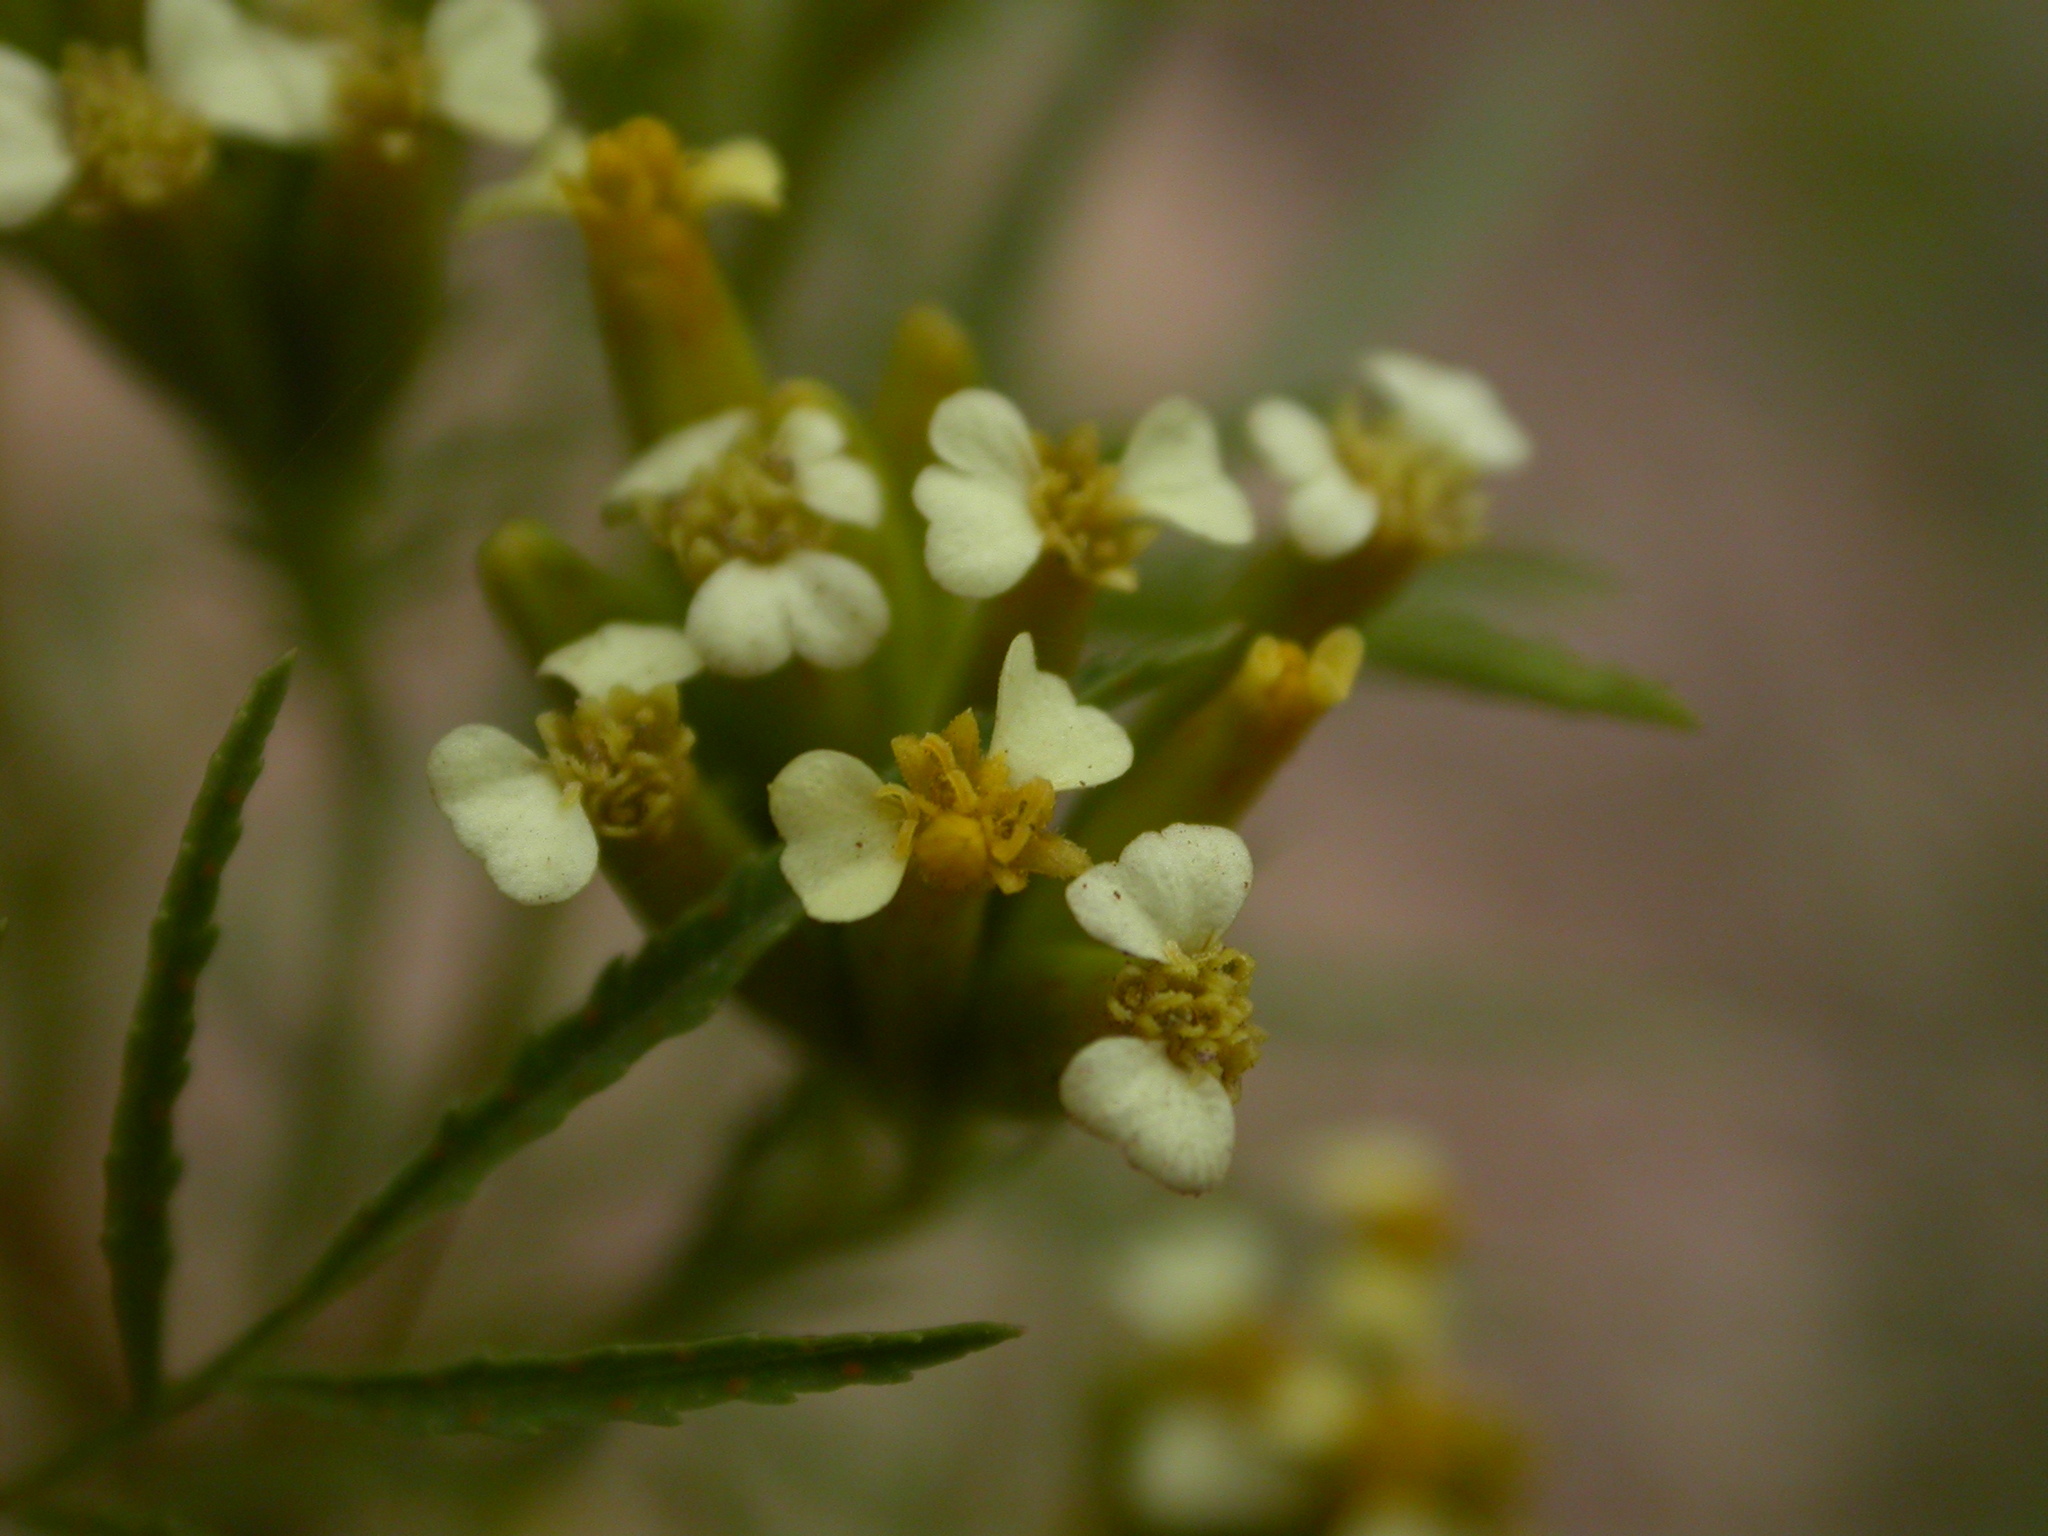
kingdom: Plantae
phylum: Tracheophyta
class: Magnoliopsida
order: Asterales
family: Asteraceae
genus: Tagetes
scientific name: Tagetes minuta
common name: Muster john henry
